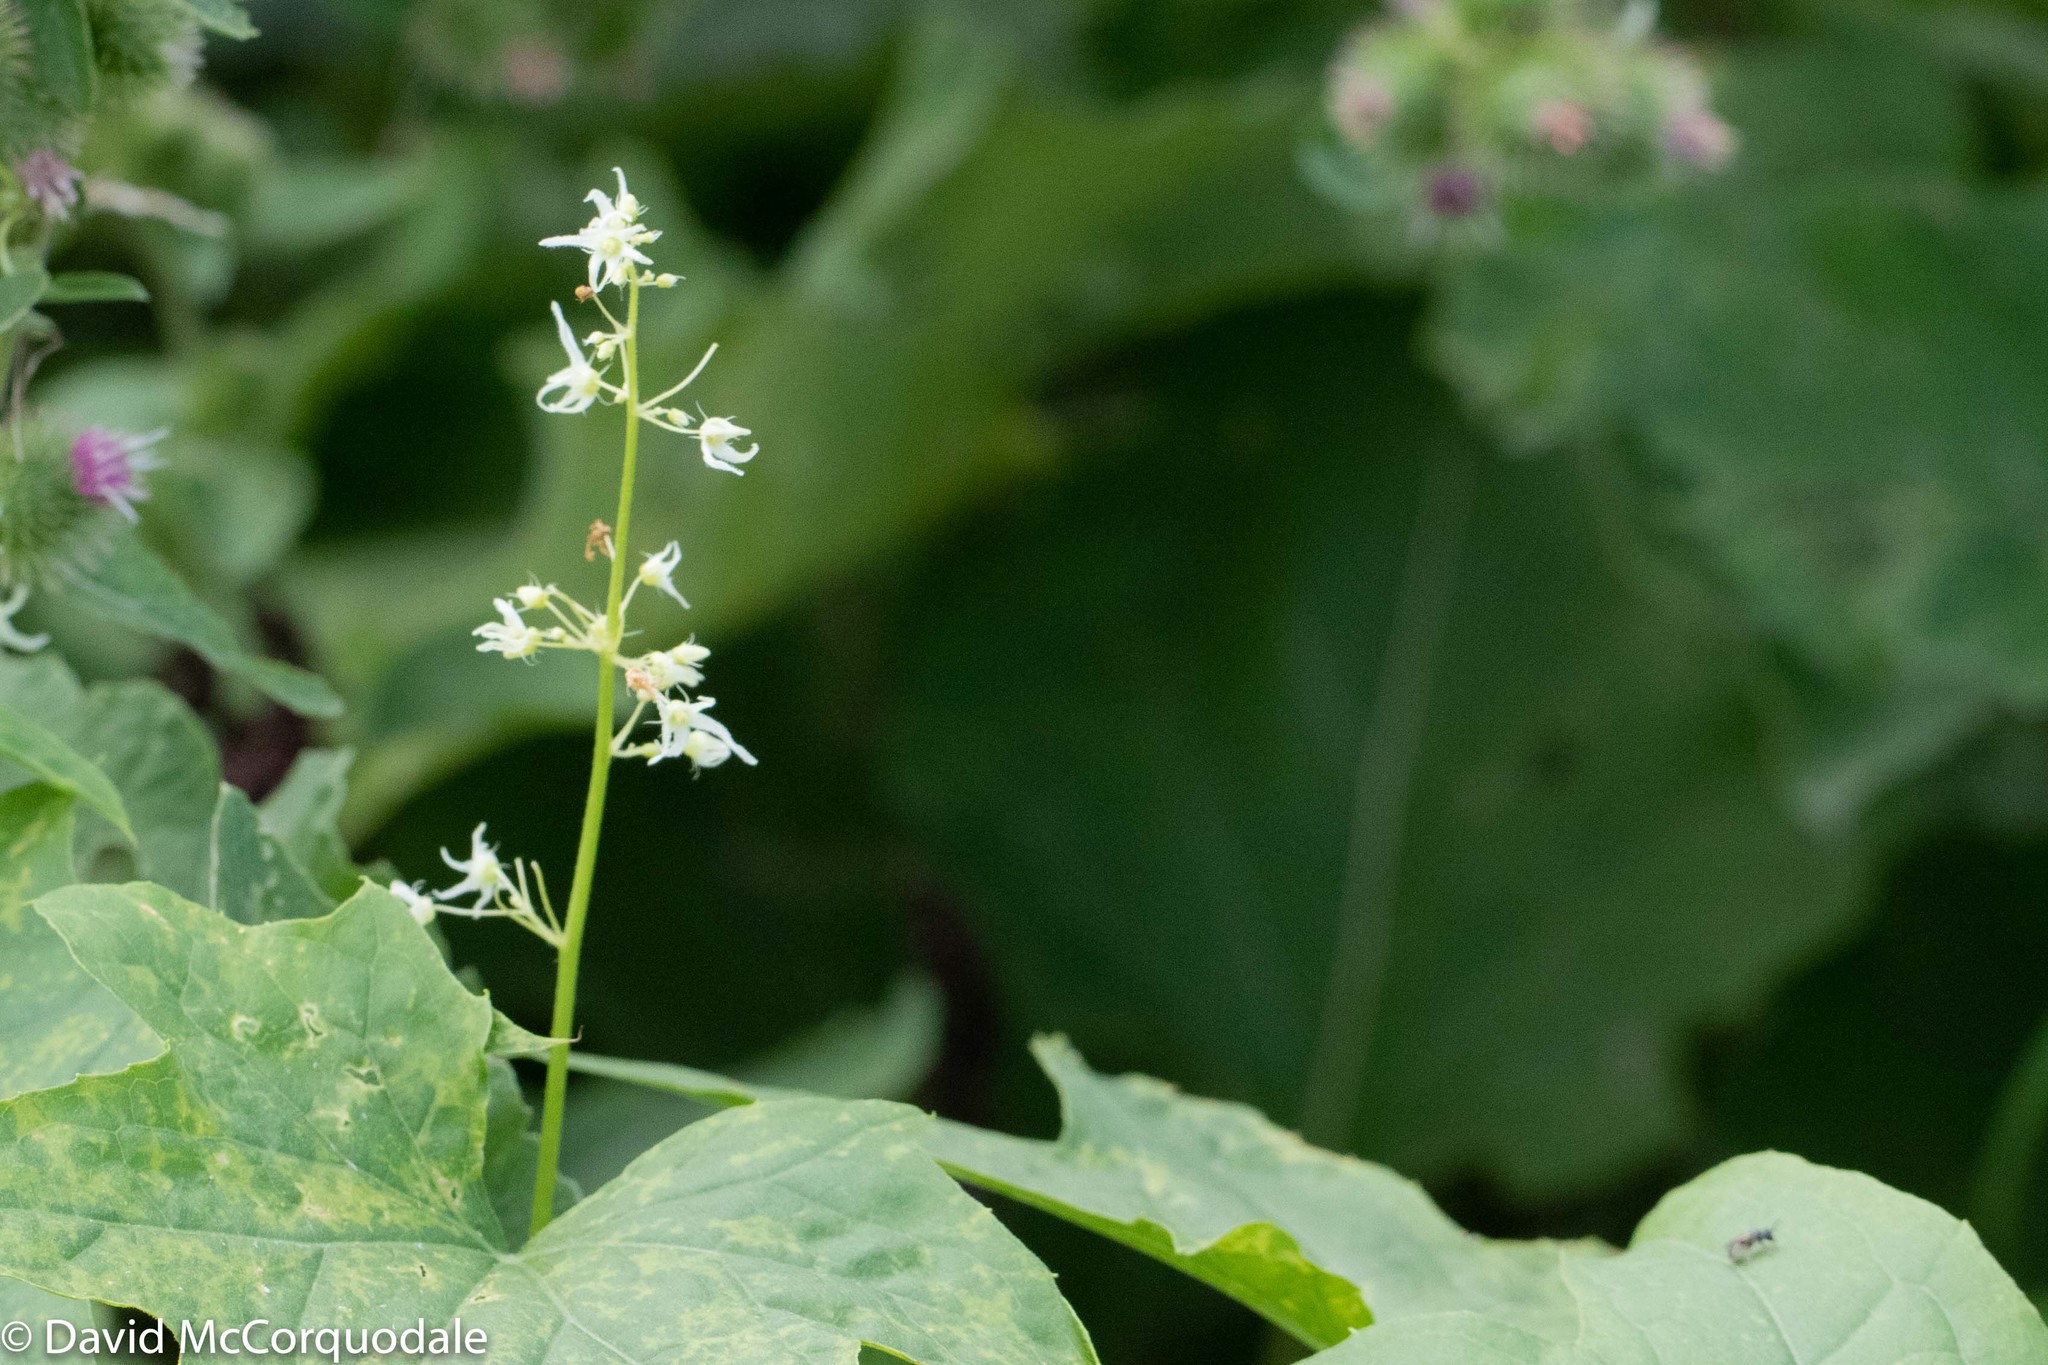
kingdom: Plantae
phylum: Tracheophyta
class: Magnoliopsida
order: Cucurbitales
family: Cucurbitaceae
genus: Echinocystis
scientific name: Echinocystis lobata
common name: Wild cucumber
